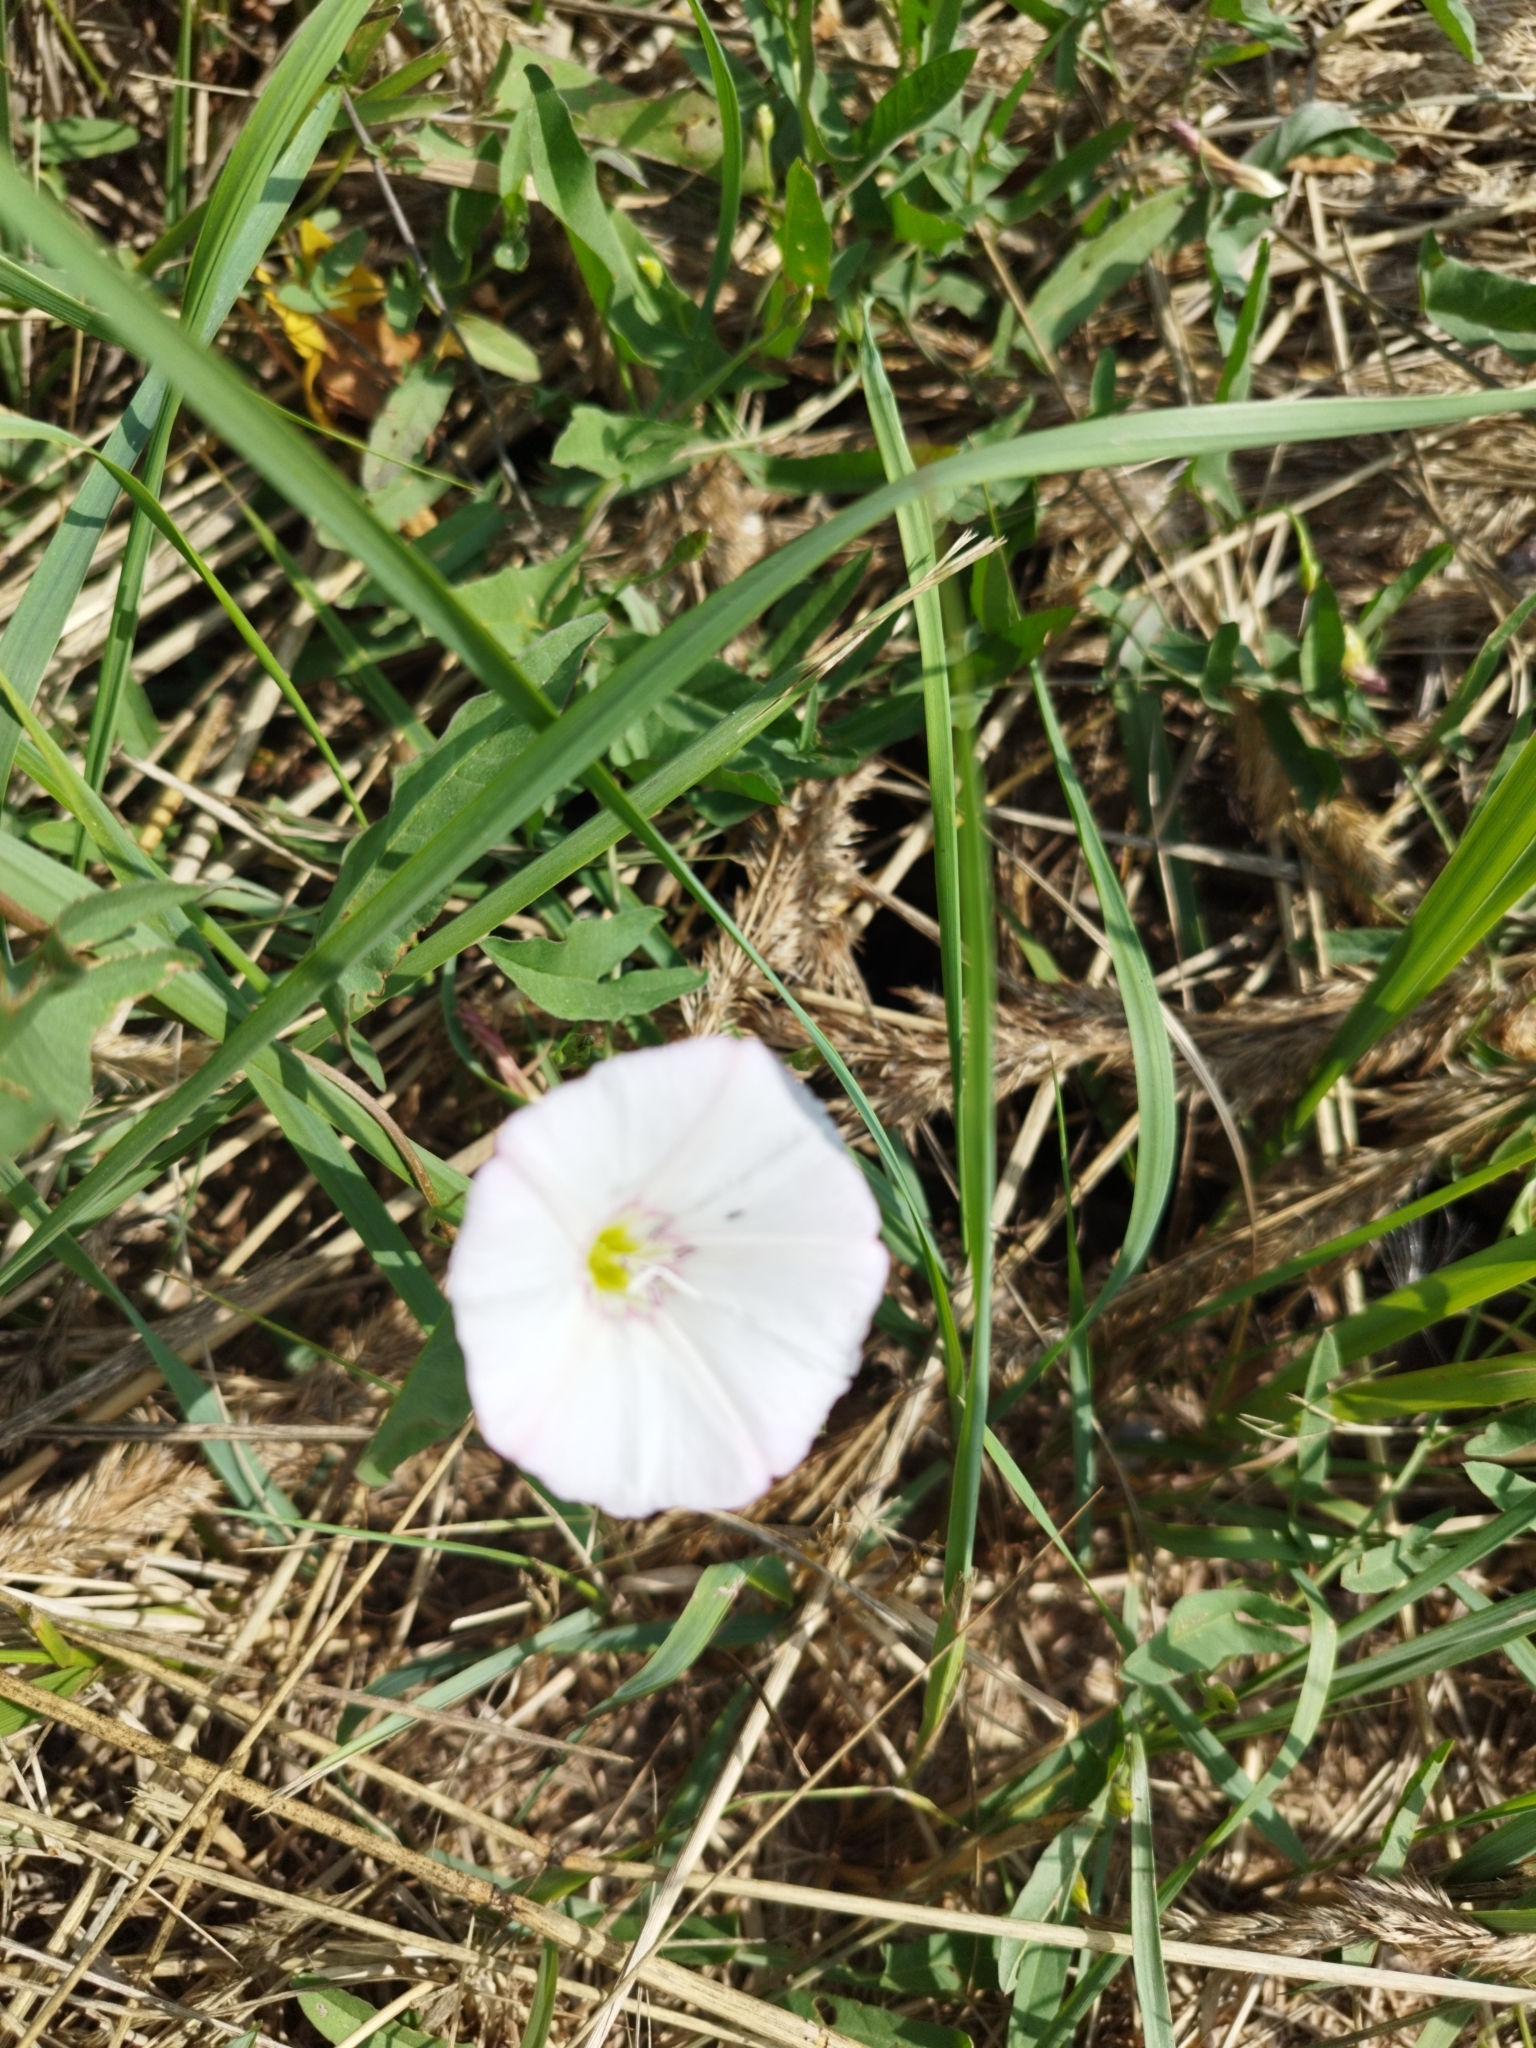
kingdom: Plantae
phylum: Tracheophyta
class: Magnoliopsida
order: Solanales
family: Convolvulaceae
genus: Convolvulus
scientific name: Convolvulus arvensis
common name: Field bindweed
